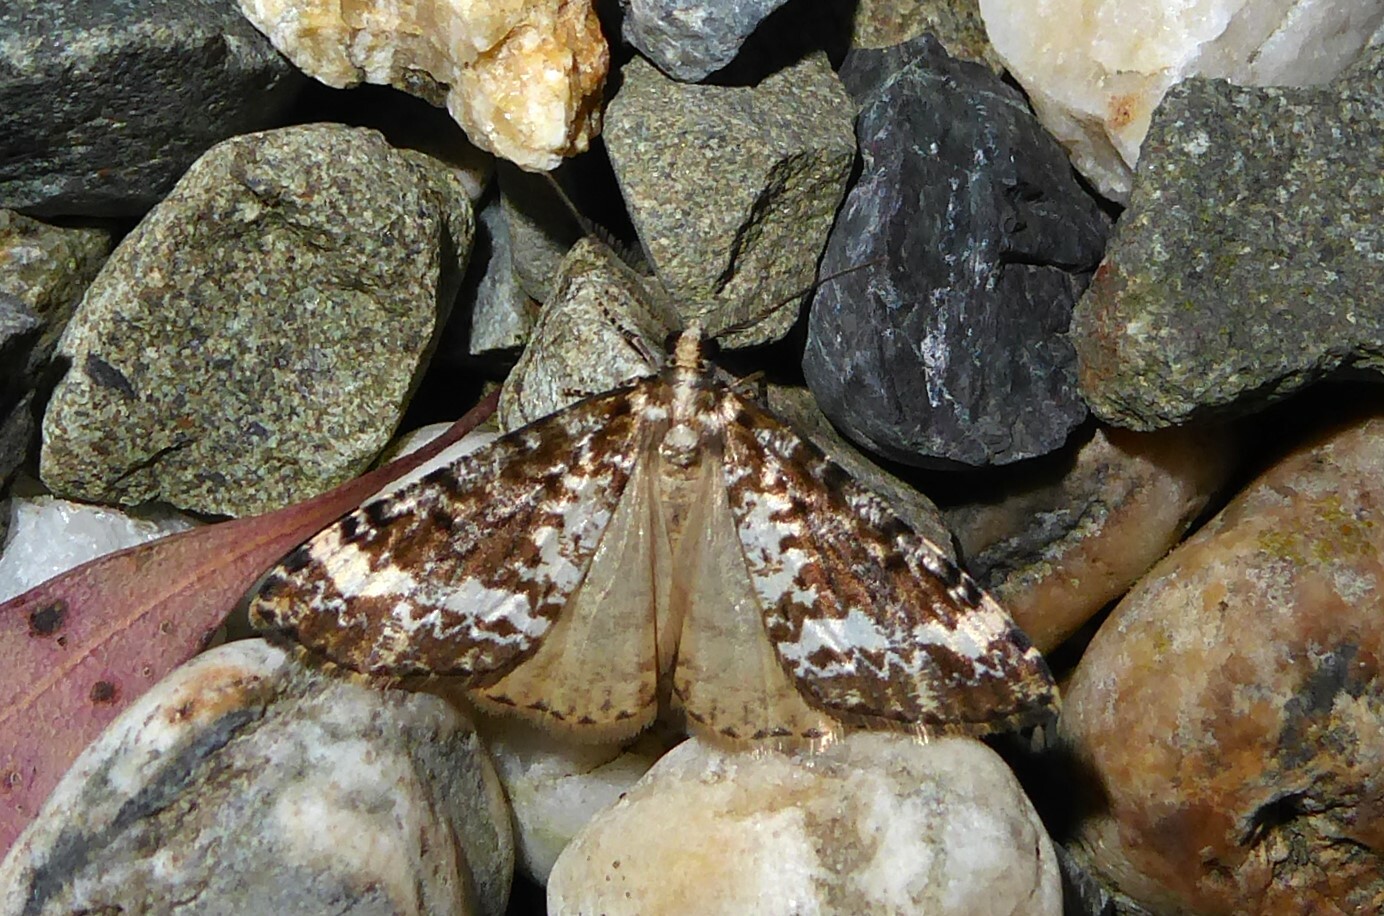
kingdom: Animalia
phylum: Arthropoda
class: Insecta
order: Lepidoptera
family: Geometridae
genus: Pseudocoremia
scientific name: Pseudocoremia leucelaea
